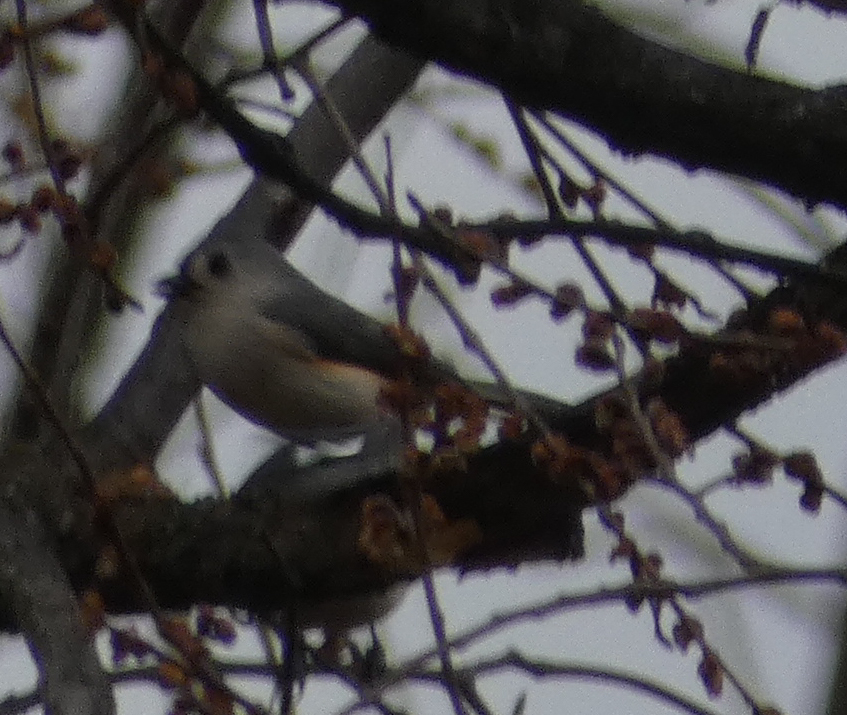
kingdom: Animalia
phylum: Chordata
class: Aves
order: Passeriformes
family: Paridae
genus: Baeolophus
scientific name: Baeolophus bicolor
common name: Tufted titmouse
